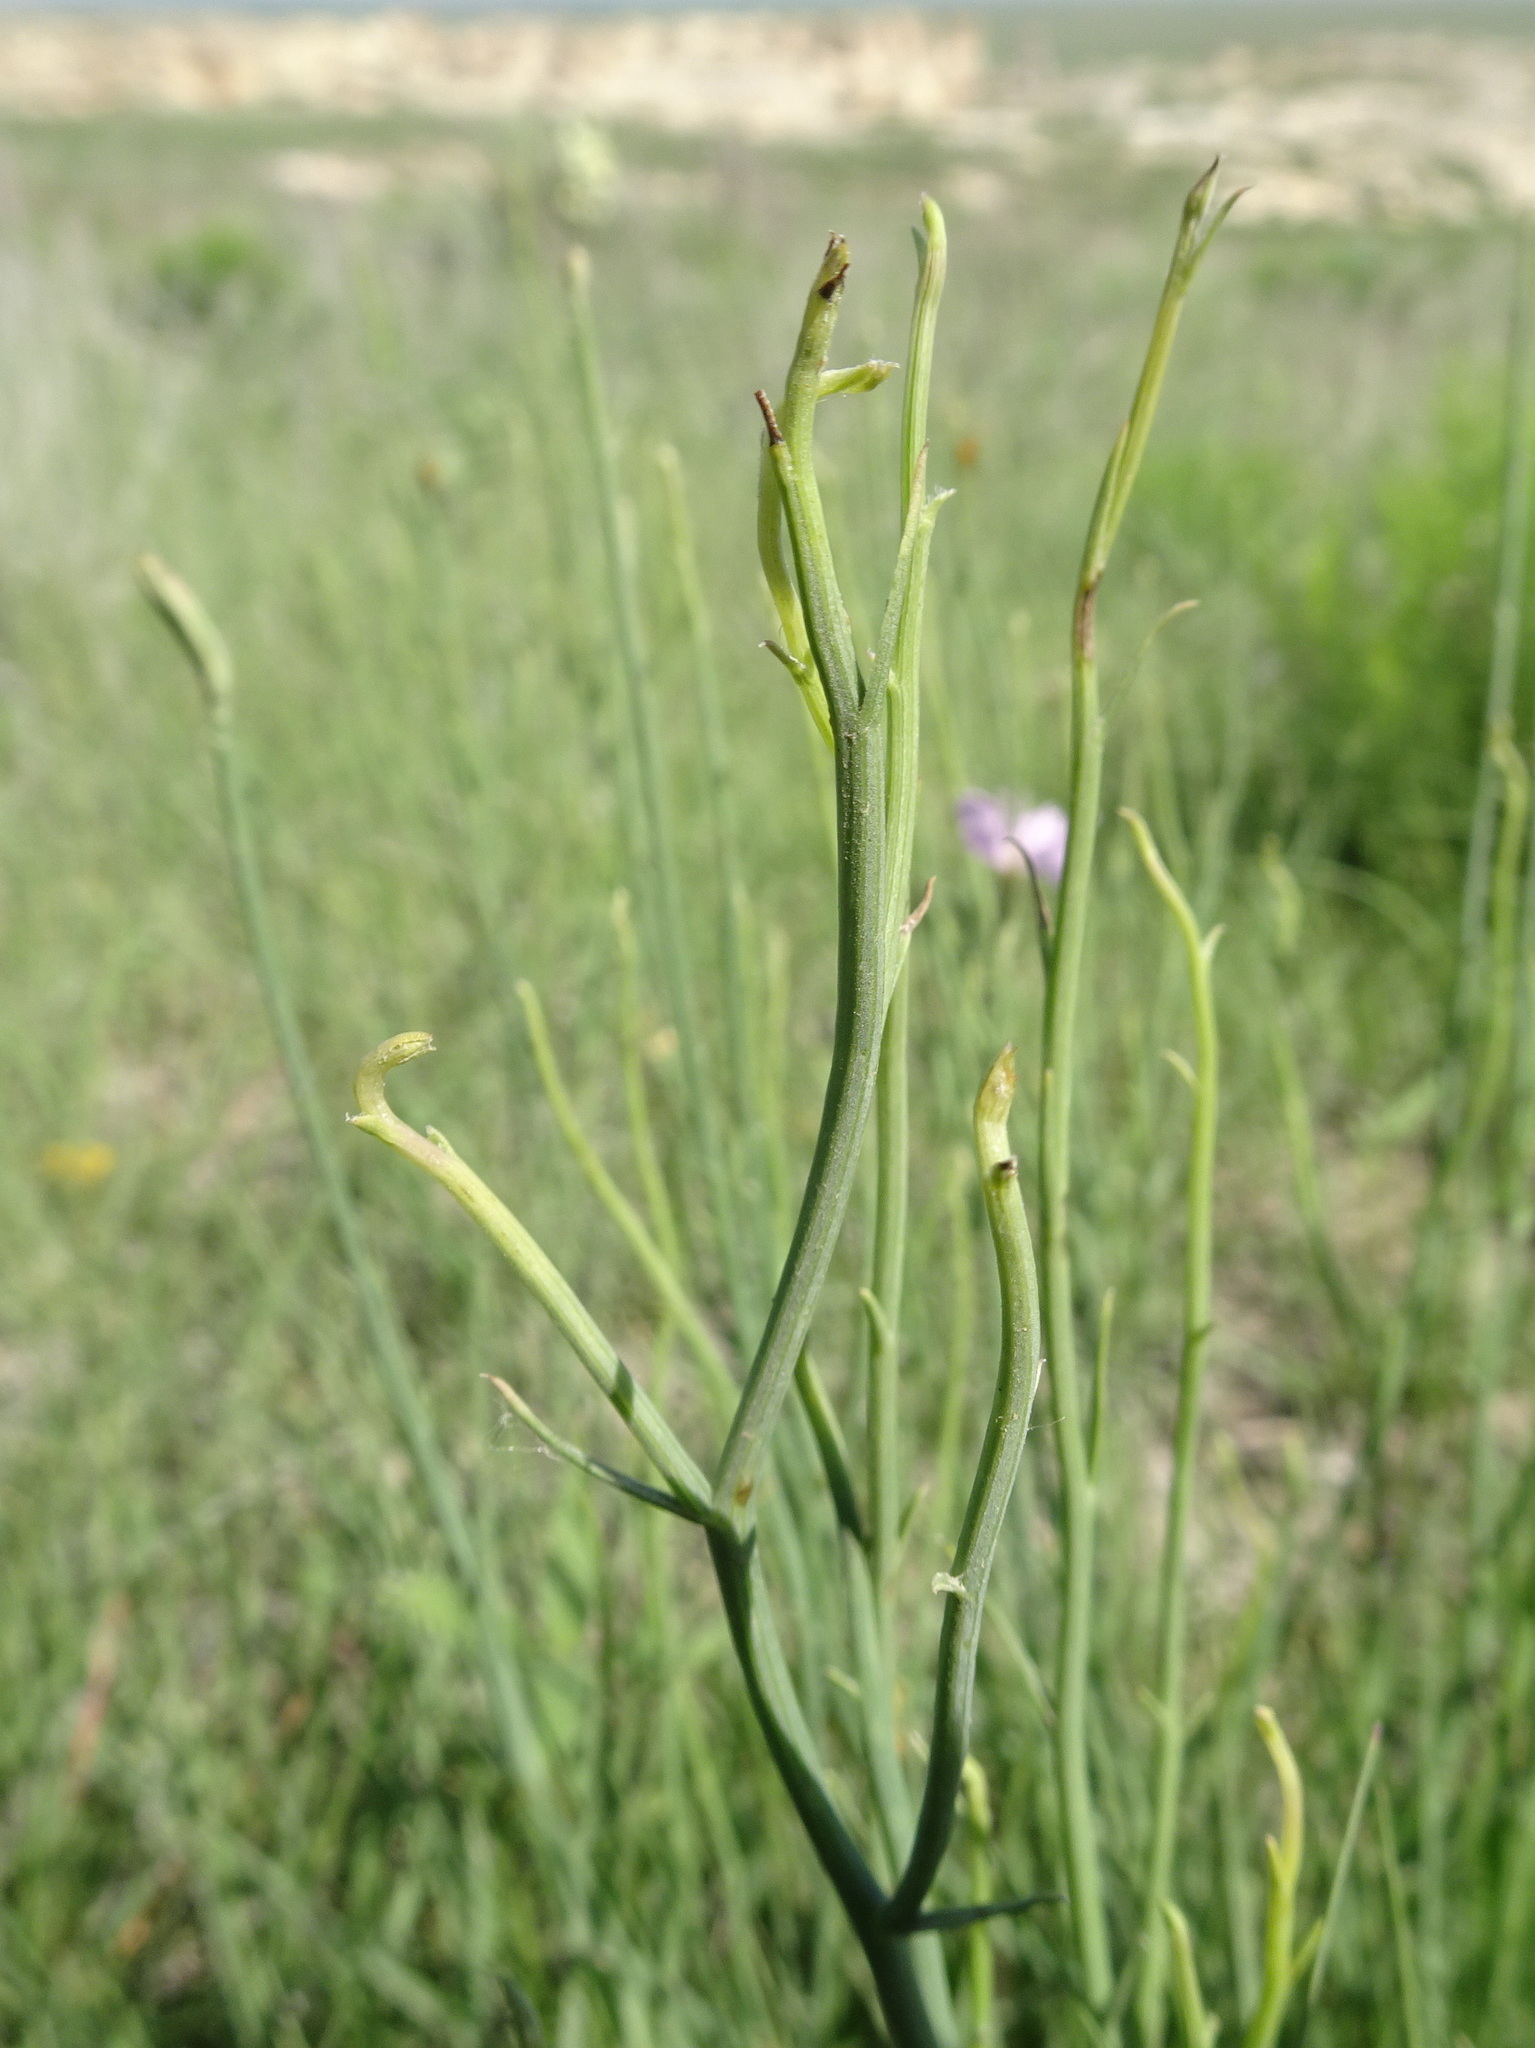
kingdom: Plantae
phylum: Tracheophyta
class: Magnoliopsida
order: Asterales
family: Asteraceae
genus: Lygodesmia
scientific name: Lygodesmia juncea
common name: Common skeletonweed
